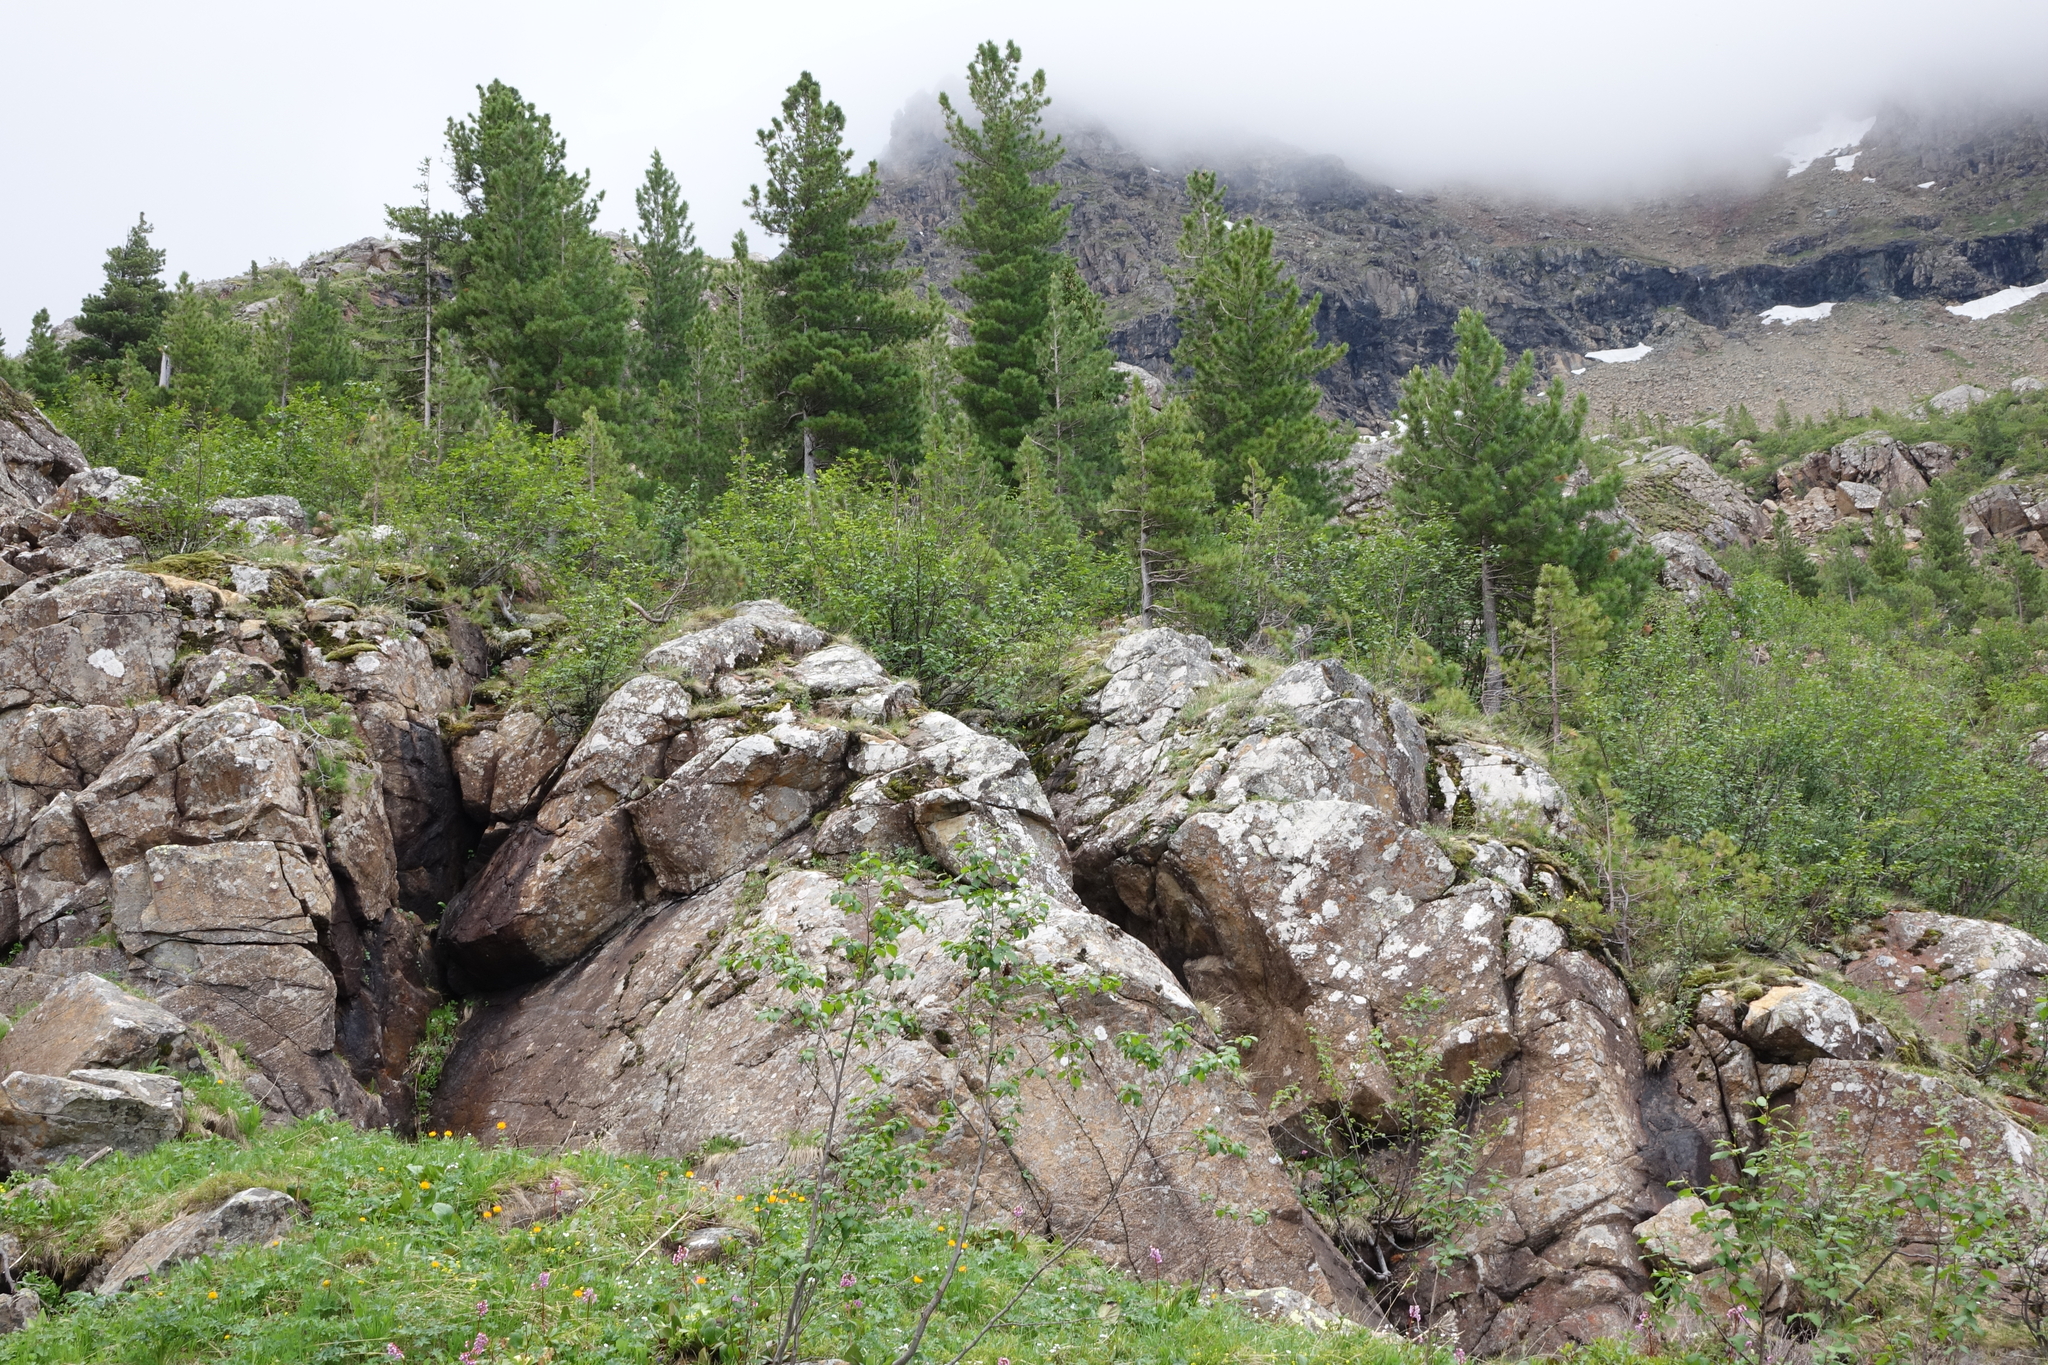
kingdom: Plantae
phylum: Tracheophyta
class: Pinopsida
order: Pinales
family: Pinaceae
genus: Pinus
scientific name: Pinus sibirica
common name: Siberian pine
